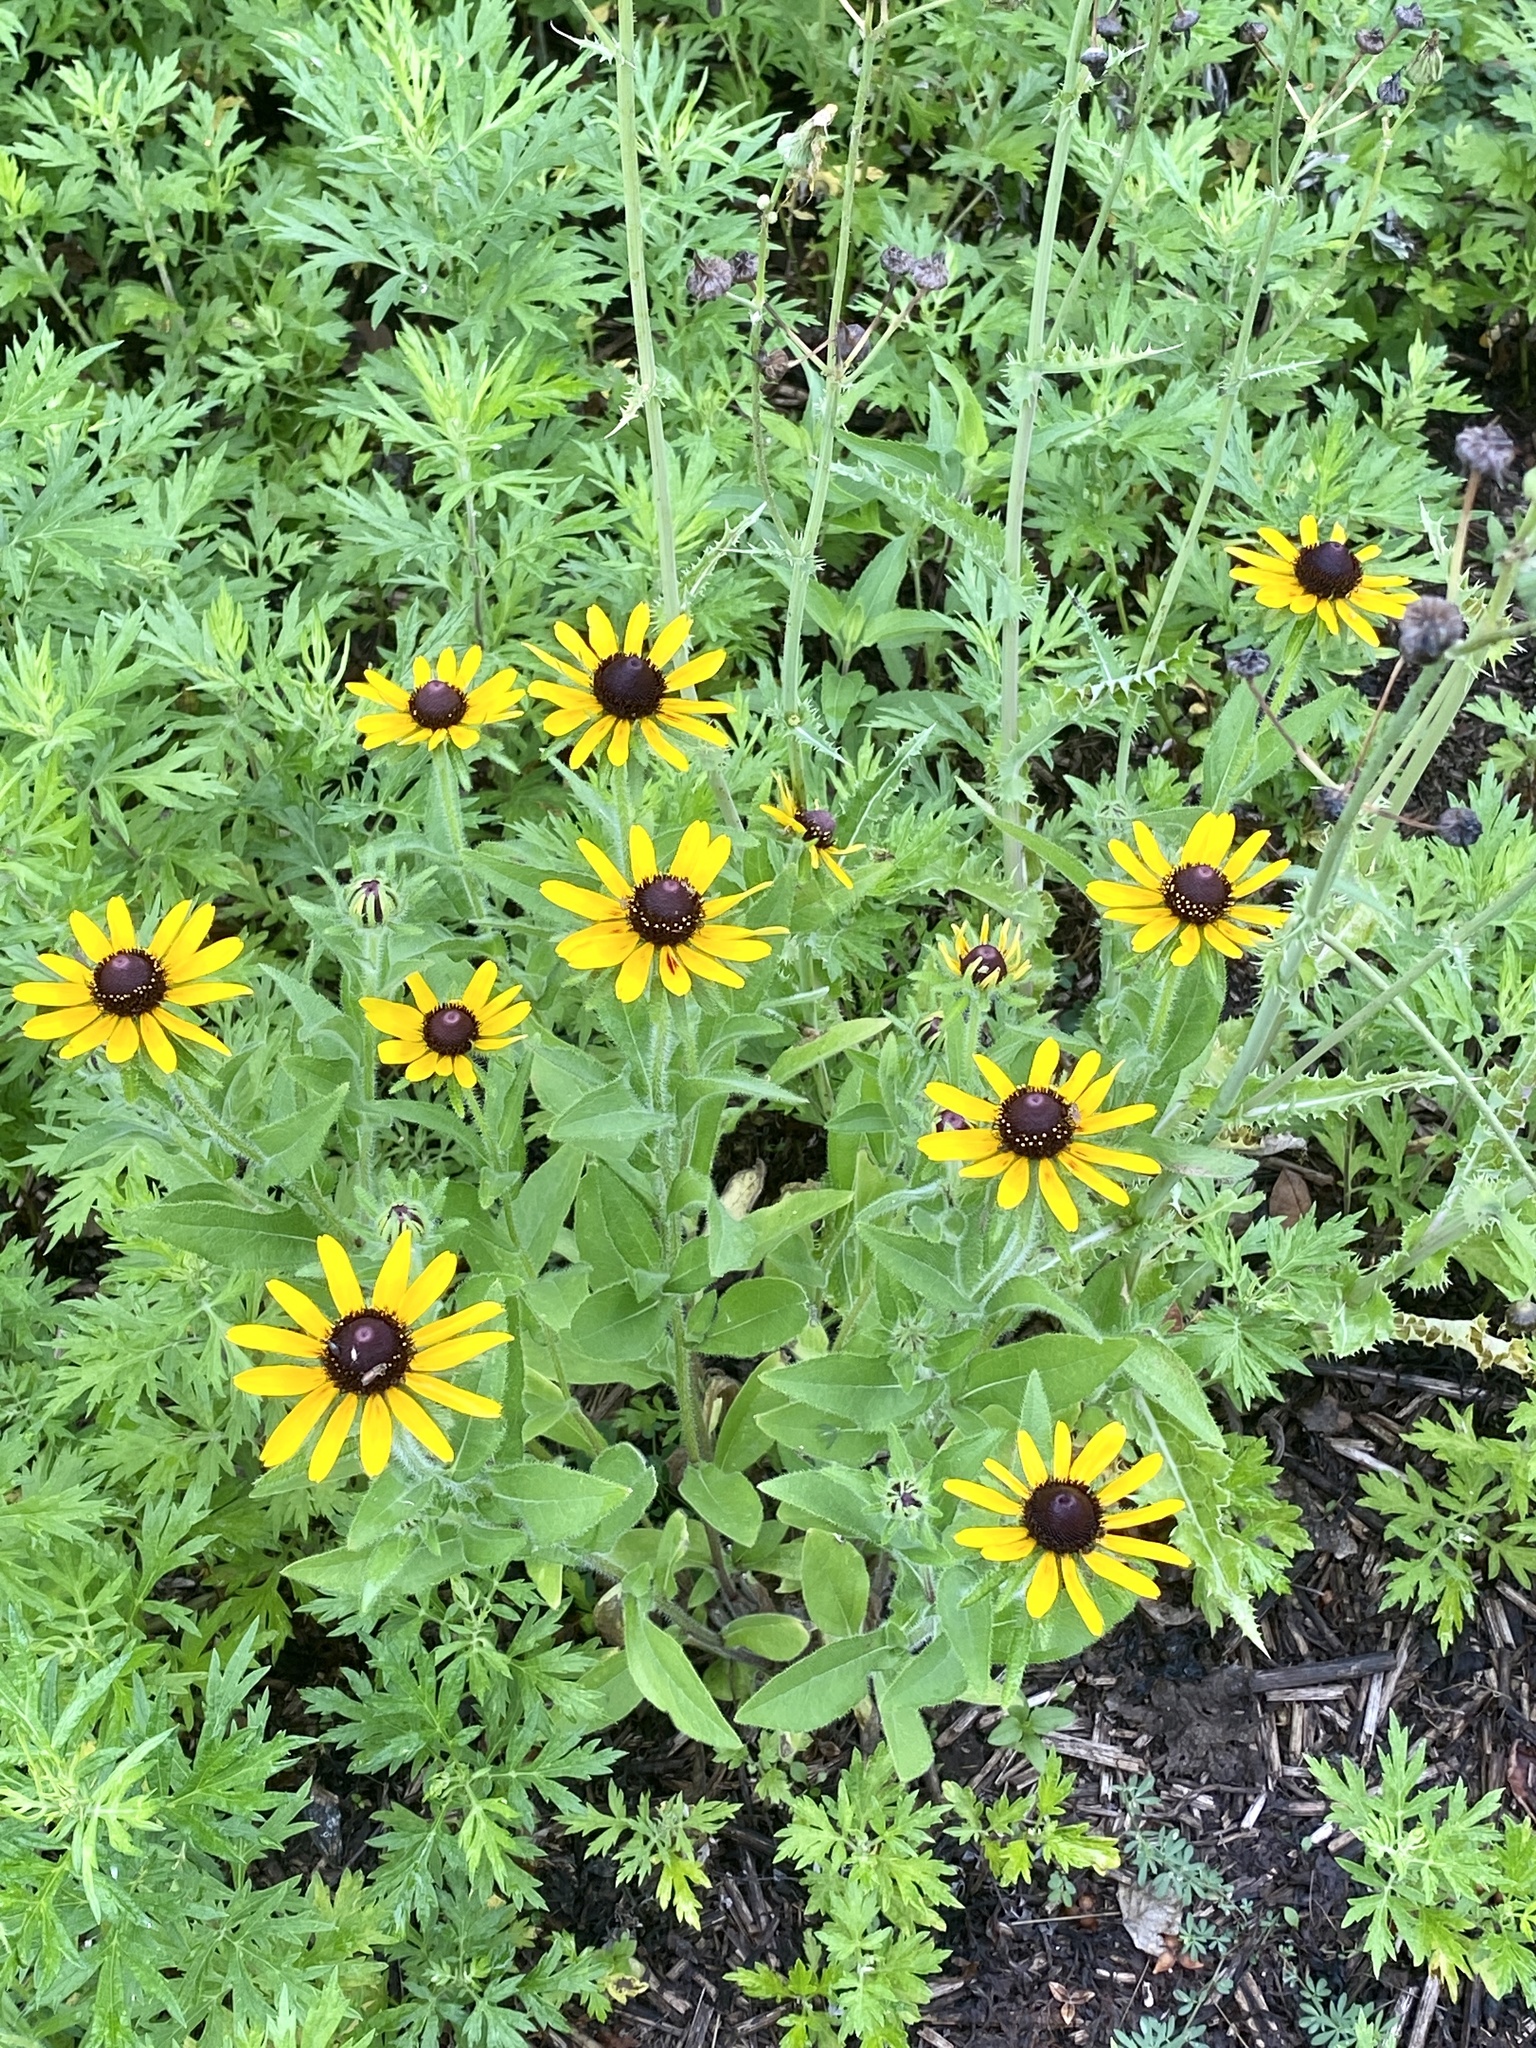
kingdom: Plantae
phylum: Tracheophyta
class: Magnoliopsida
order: Asterales
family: Asteraceae
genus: Rudbeckia
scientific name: Rudbeckia hirta
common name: Black-eyed-susan
